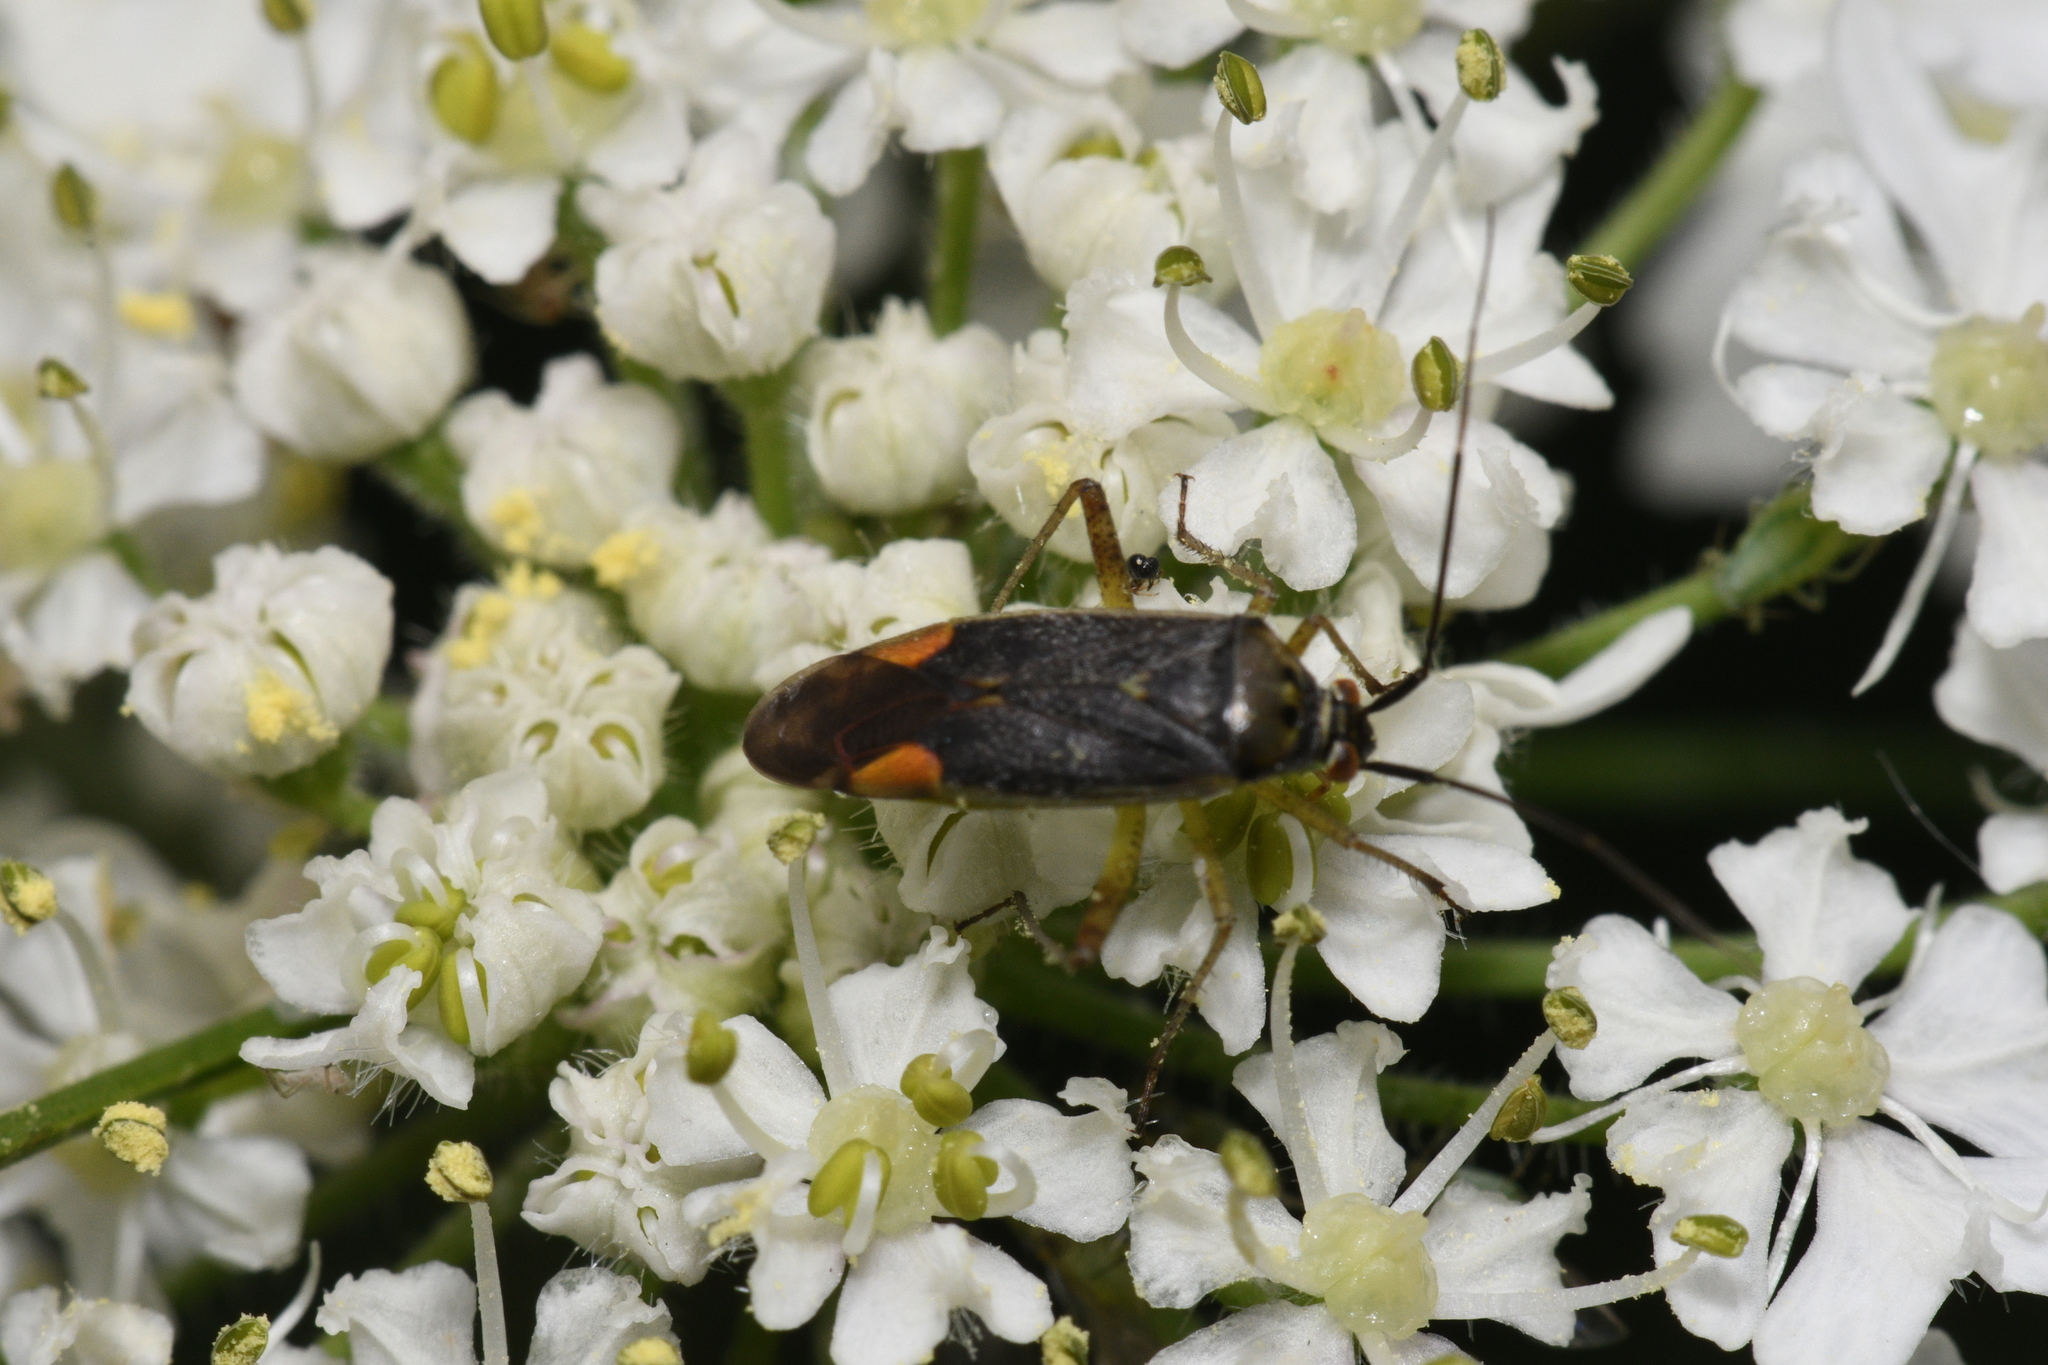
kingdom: Animalia
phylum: Arthropoda
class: Insecta
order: Hemiptera
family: Miridae
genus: Closterotomus
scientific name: Closterotomus trivialis
